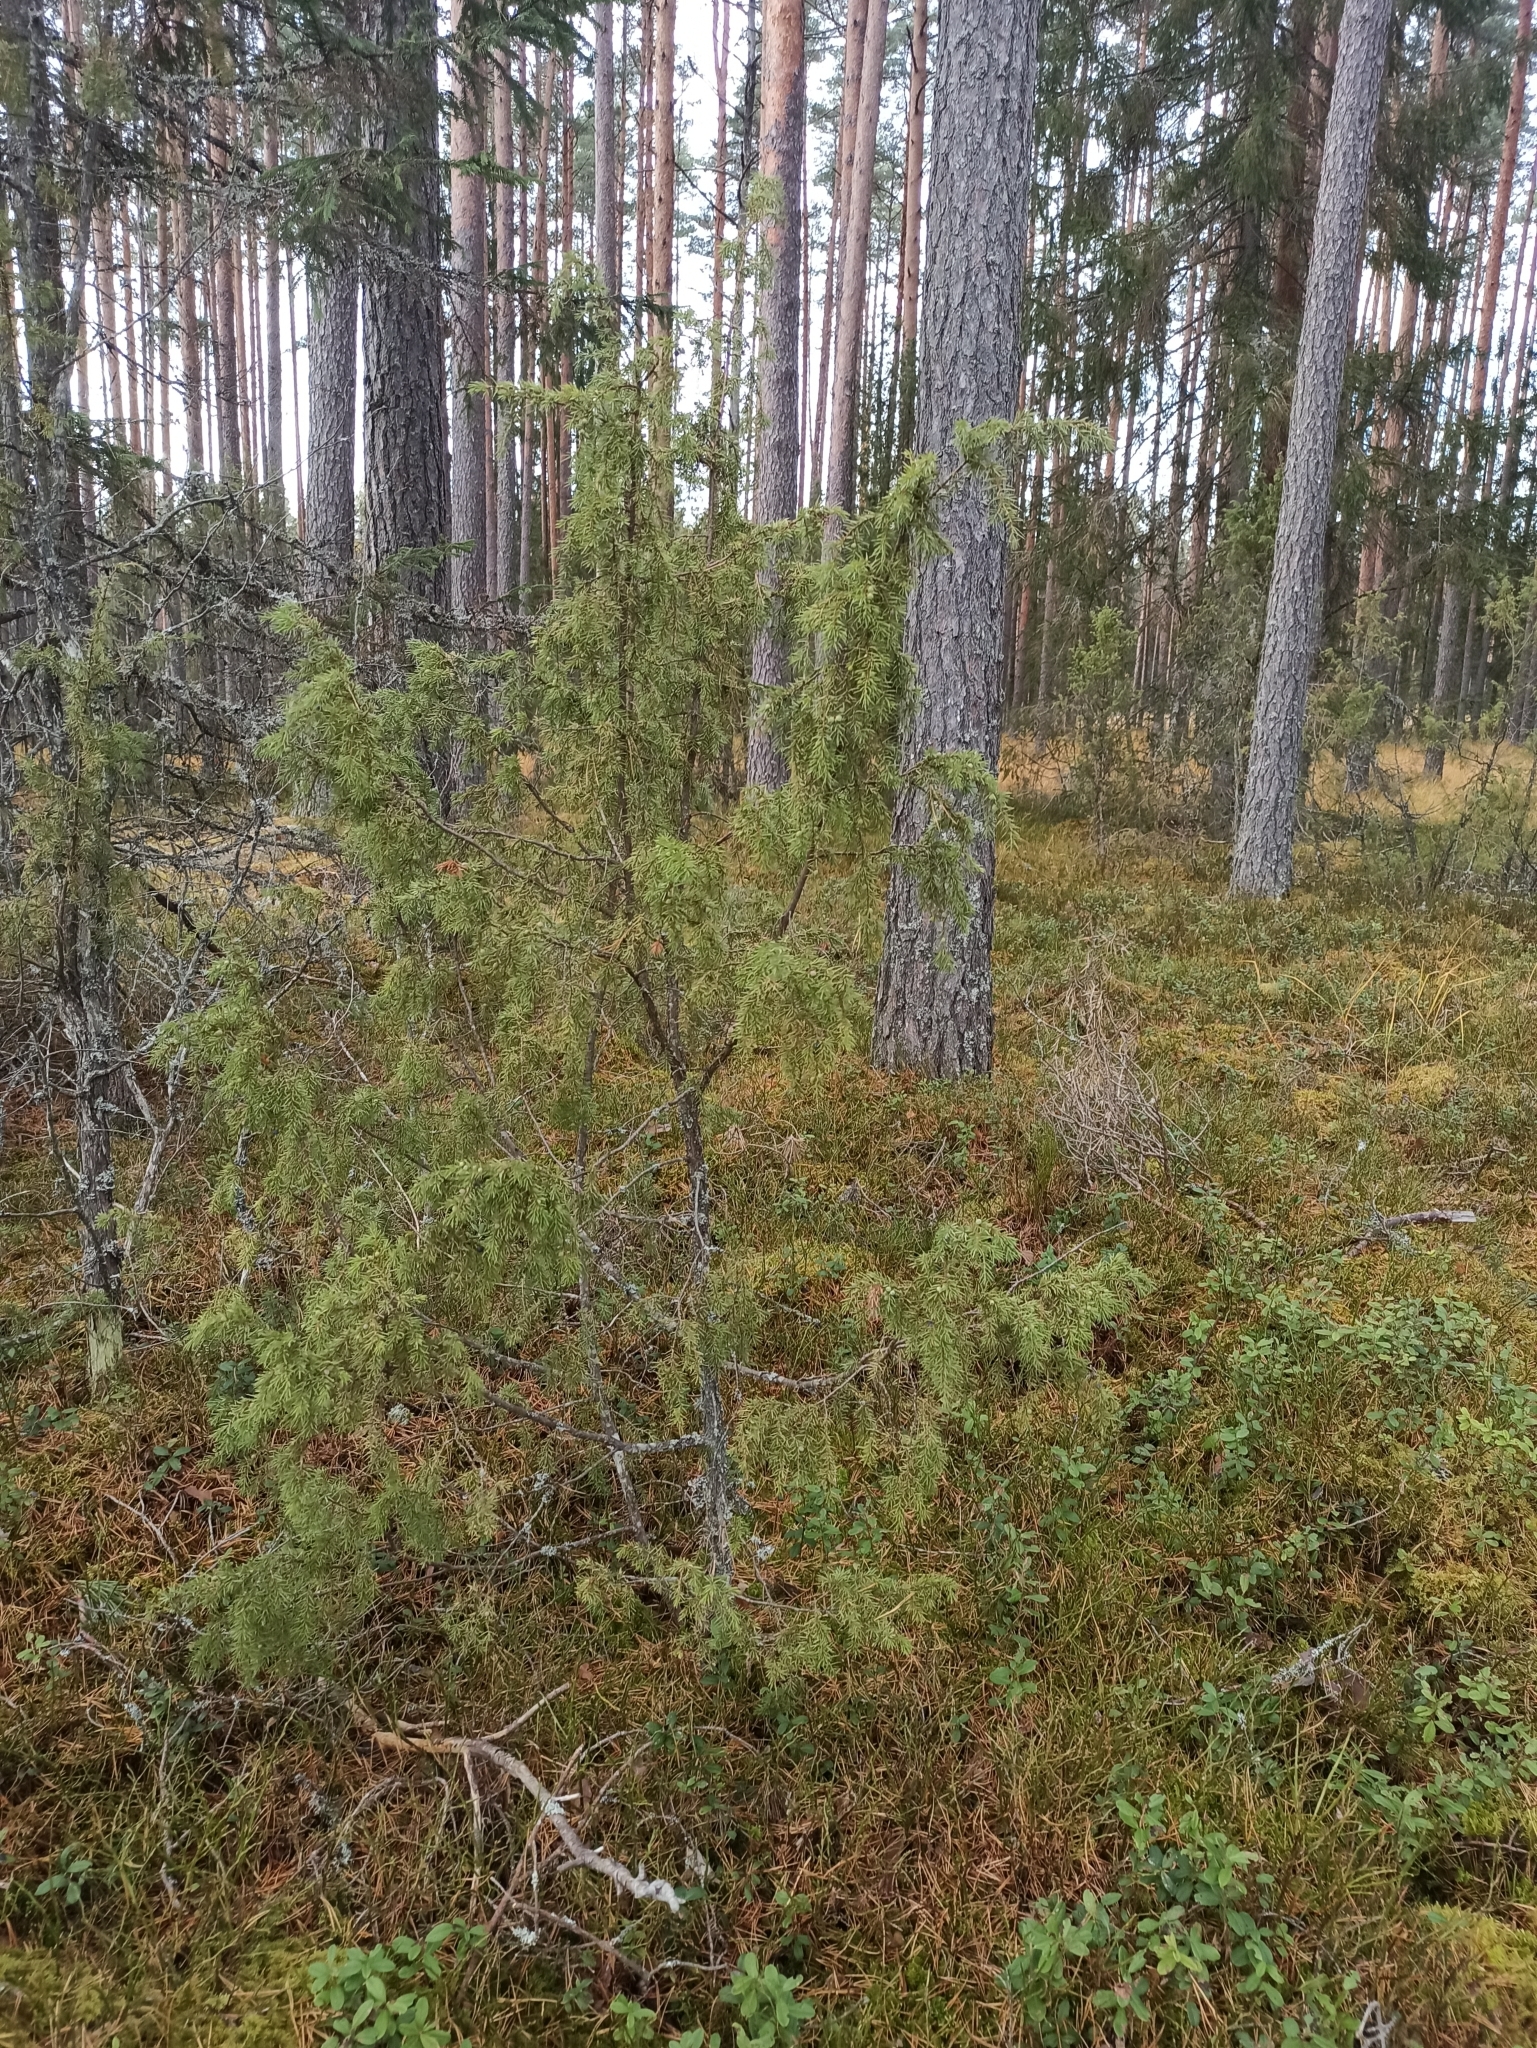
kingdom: Plantae
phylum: Tracheophyta
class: Pinopsida
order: Pinales
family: Cupressaceae
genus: Juniperus
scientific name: Juniperus communis
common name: Common juniper
